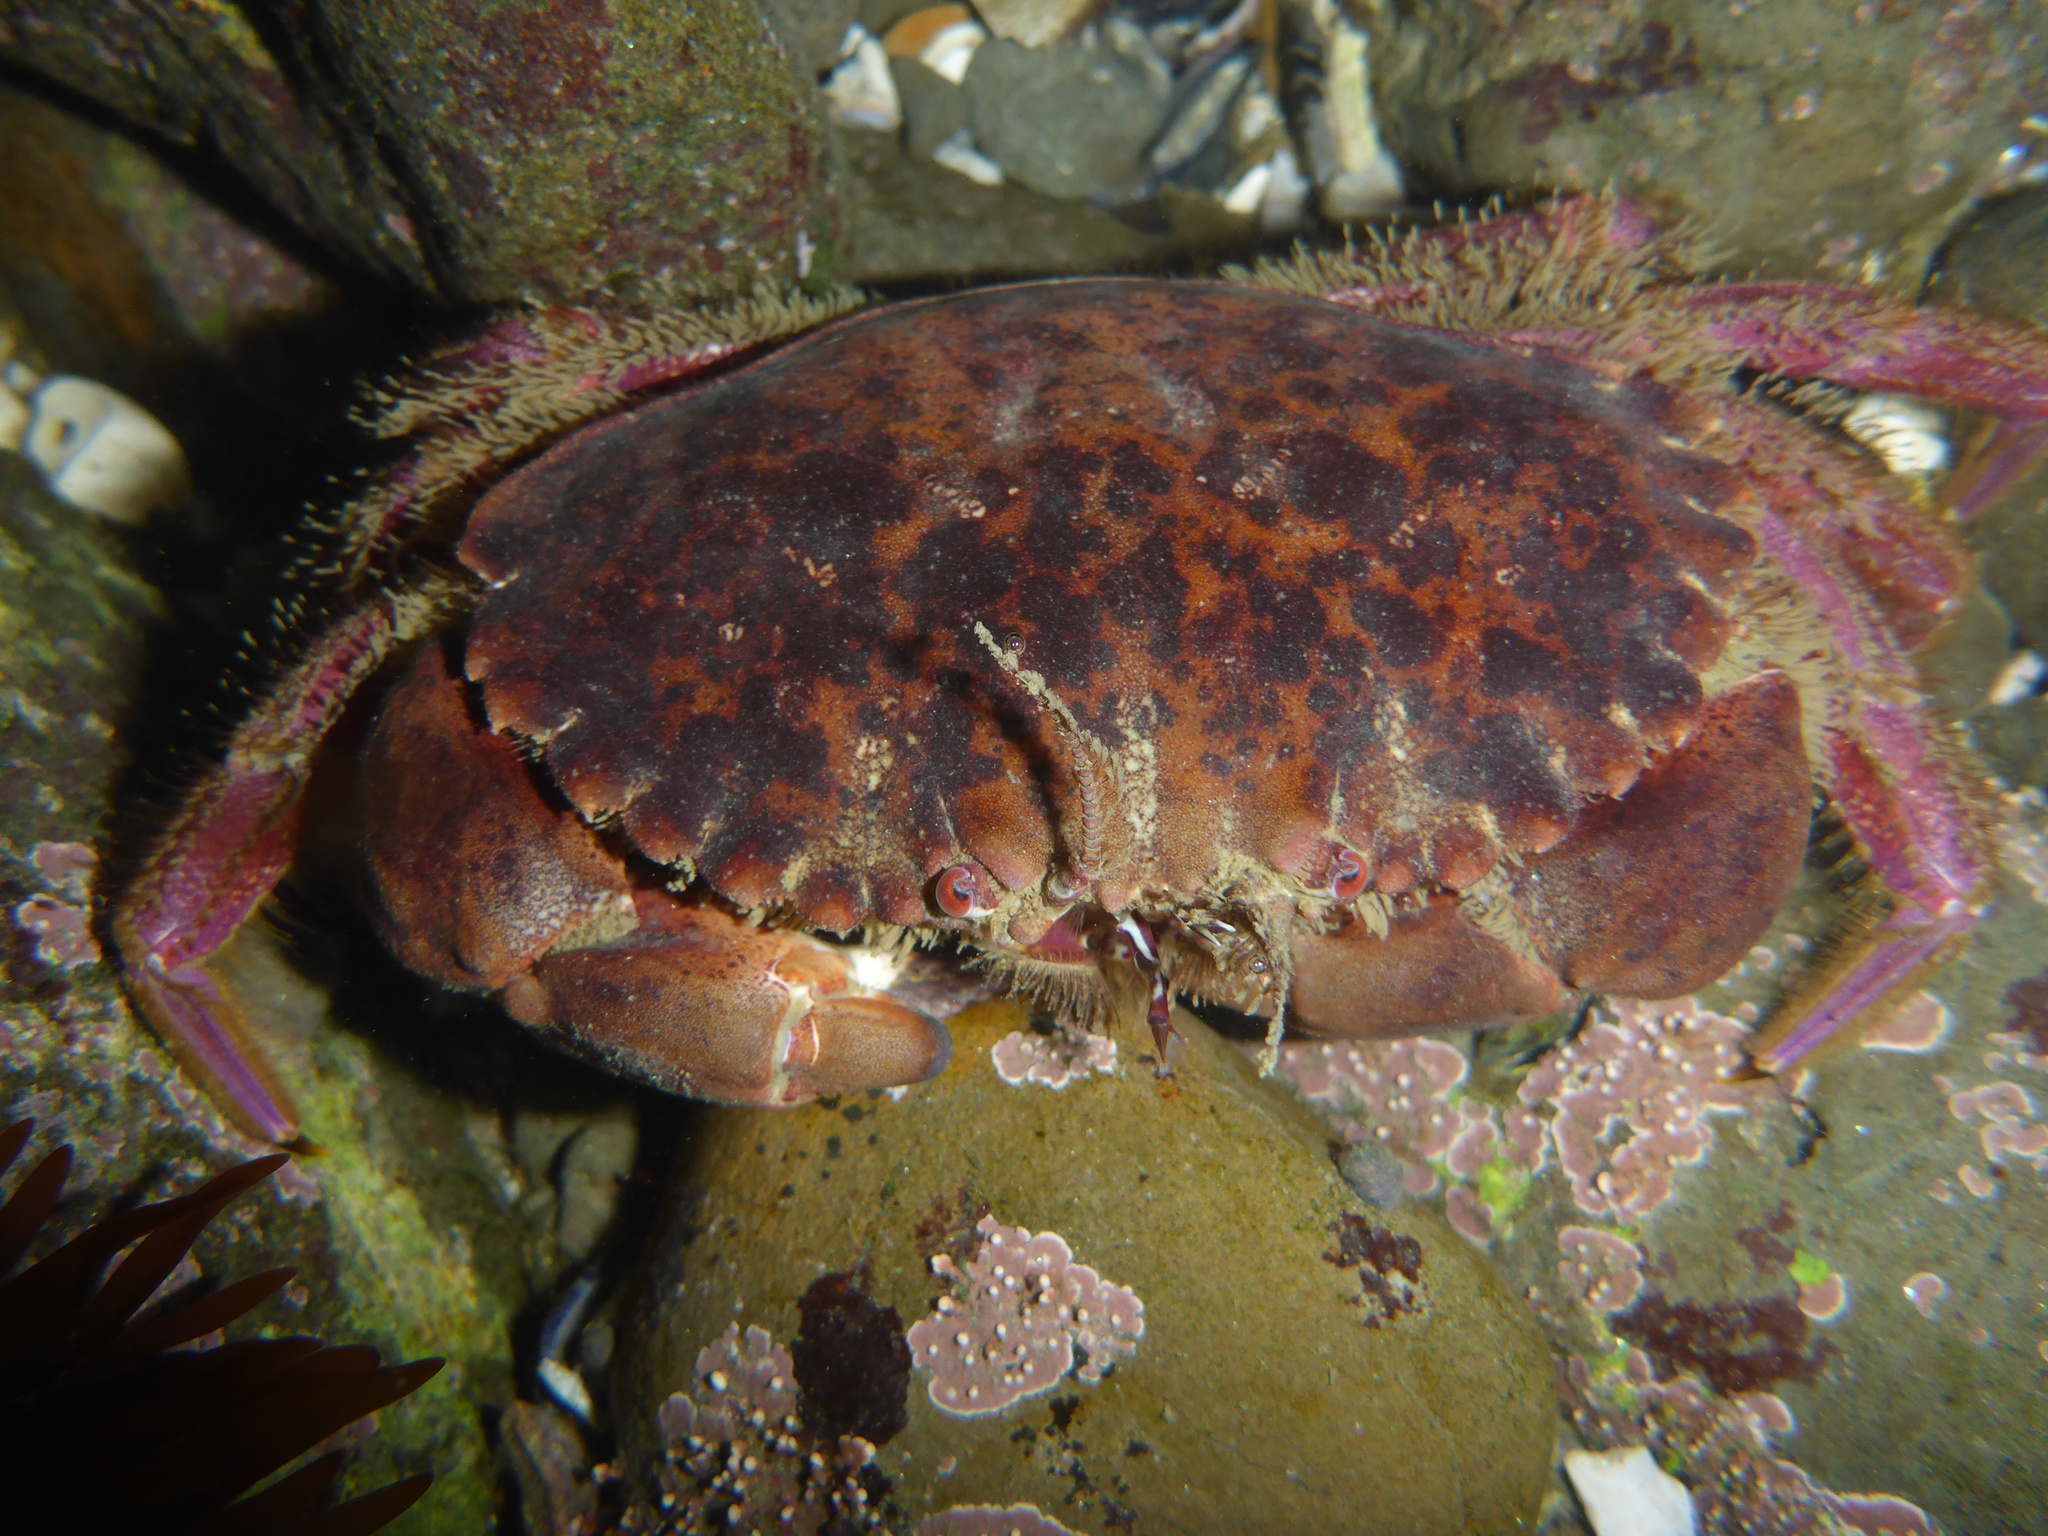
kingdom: Animalia
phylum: Arthropoda
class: Malacostraca
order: Decapoda
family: Cancridae
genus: Romaleon
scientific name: Romaleon antennarium
